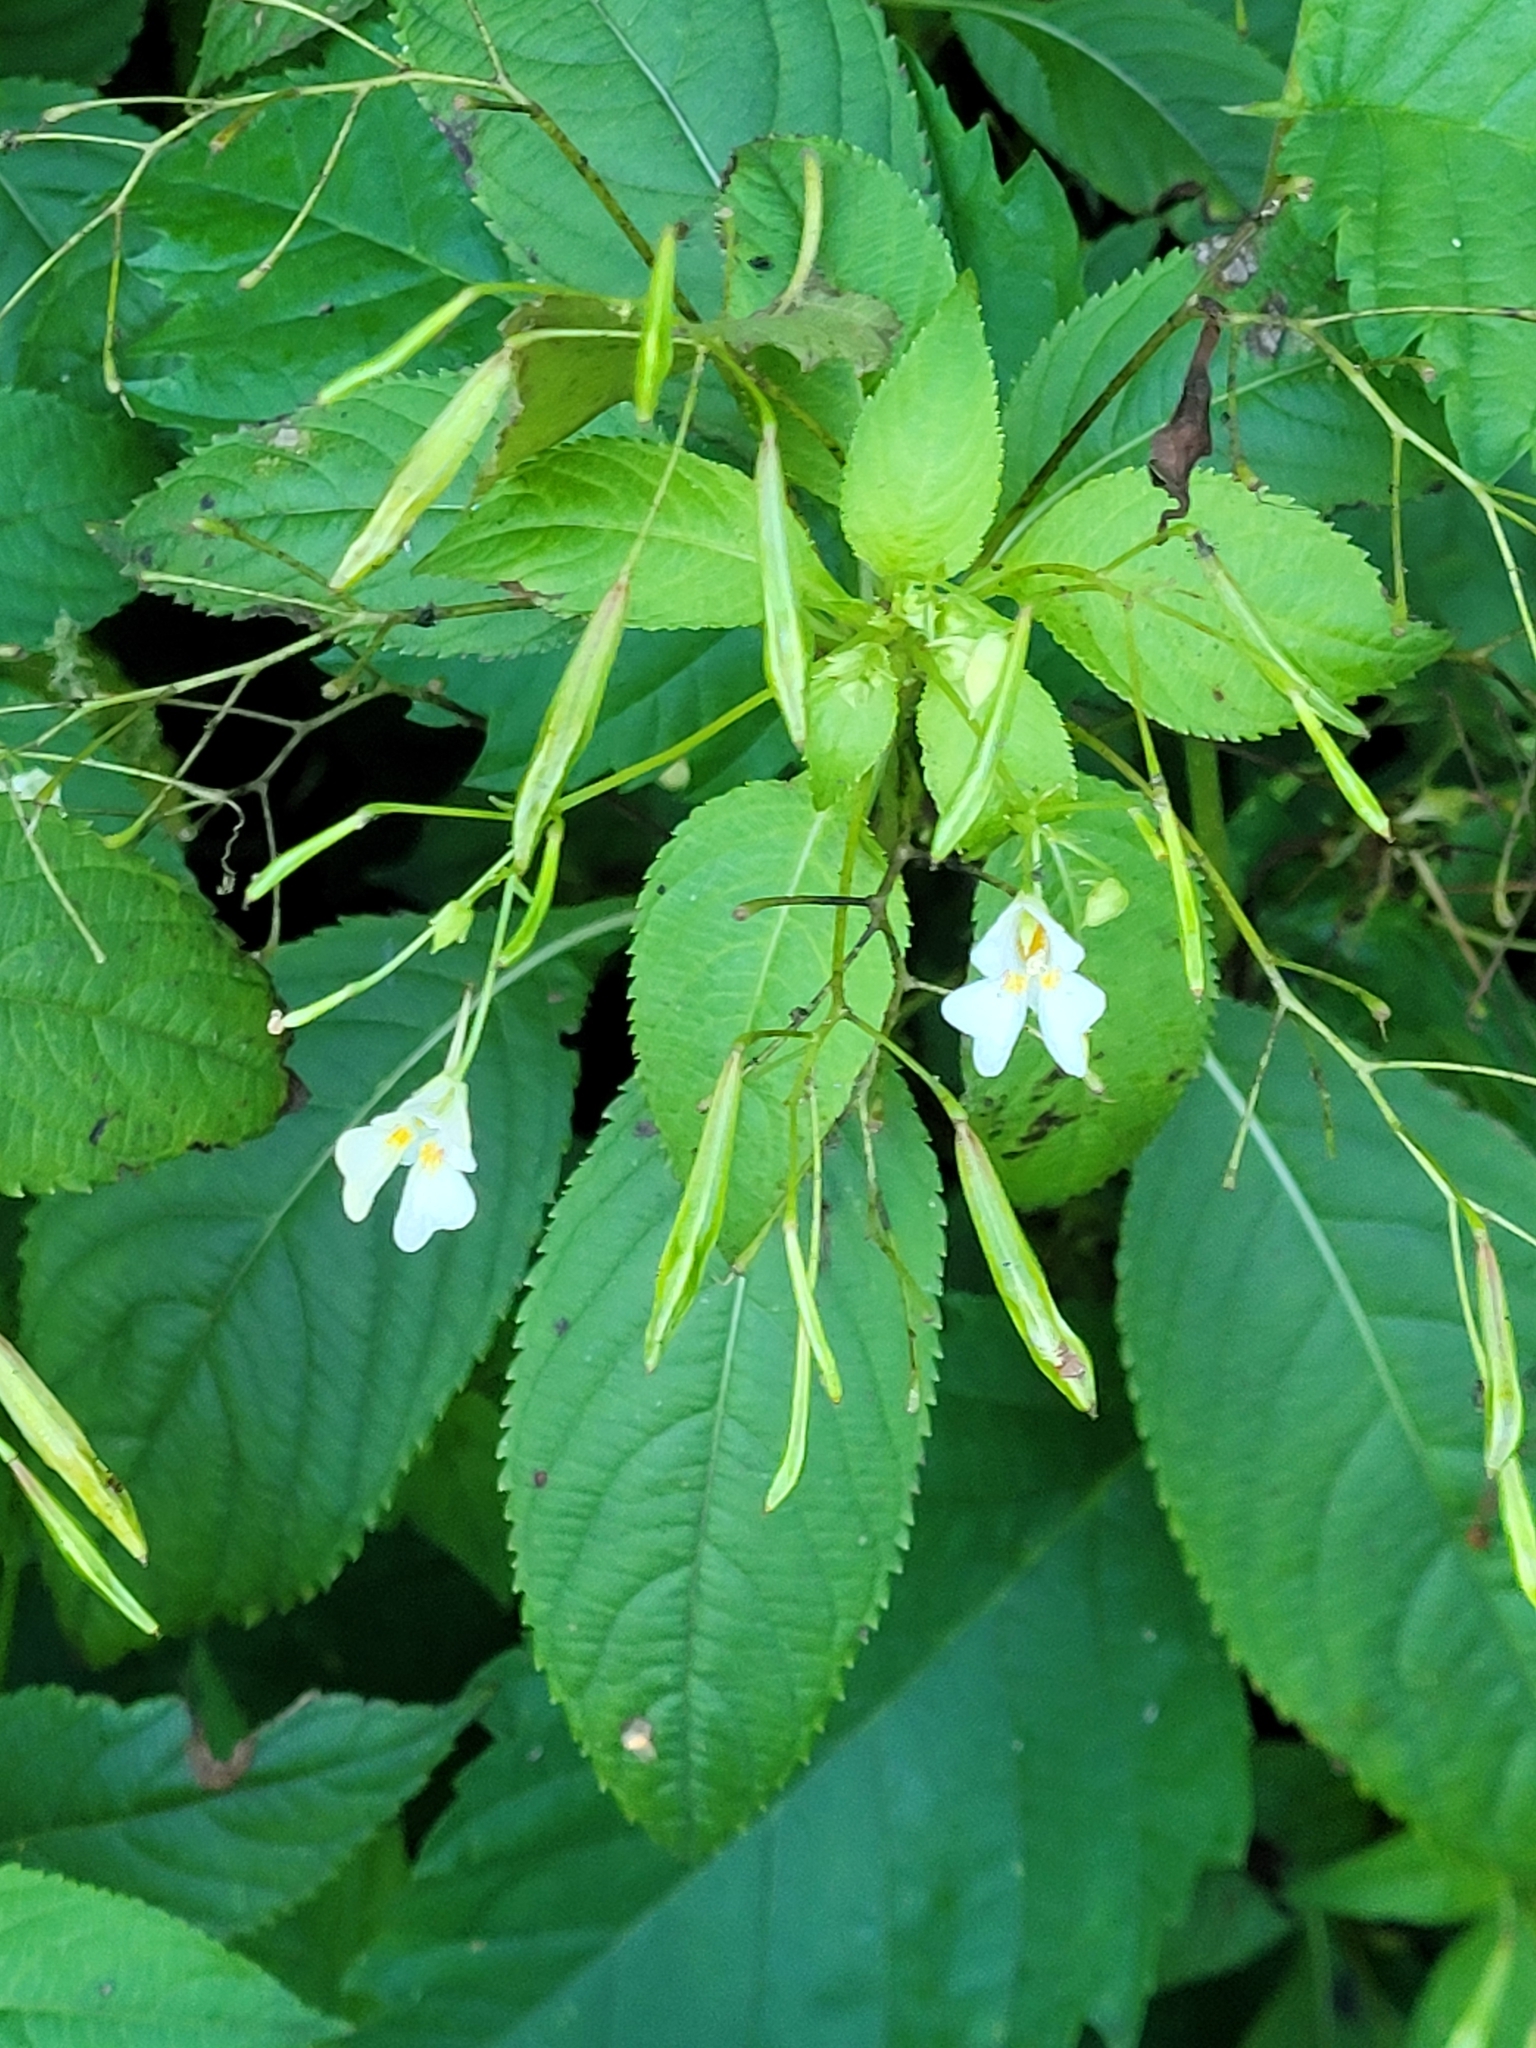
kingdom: Plantae
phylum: Tracheophyta
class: Magnoliopsida
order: Ericales
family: Balsaminaceae
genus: Impatiens
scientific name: Impatiens parviflora
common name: Small balsam
